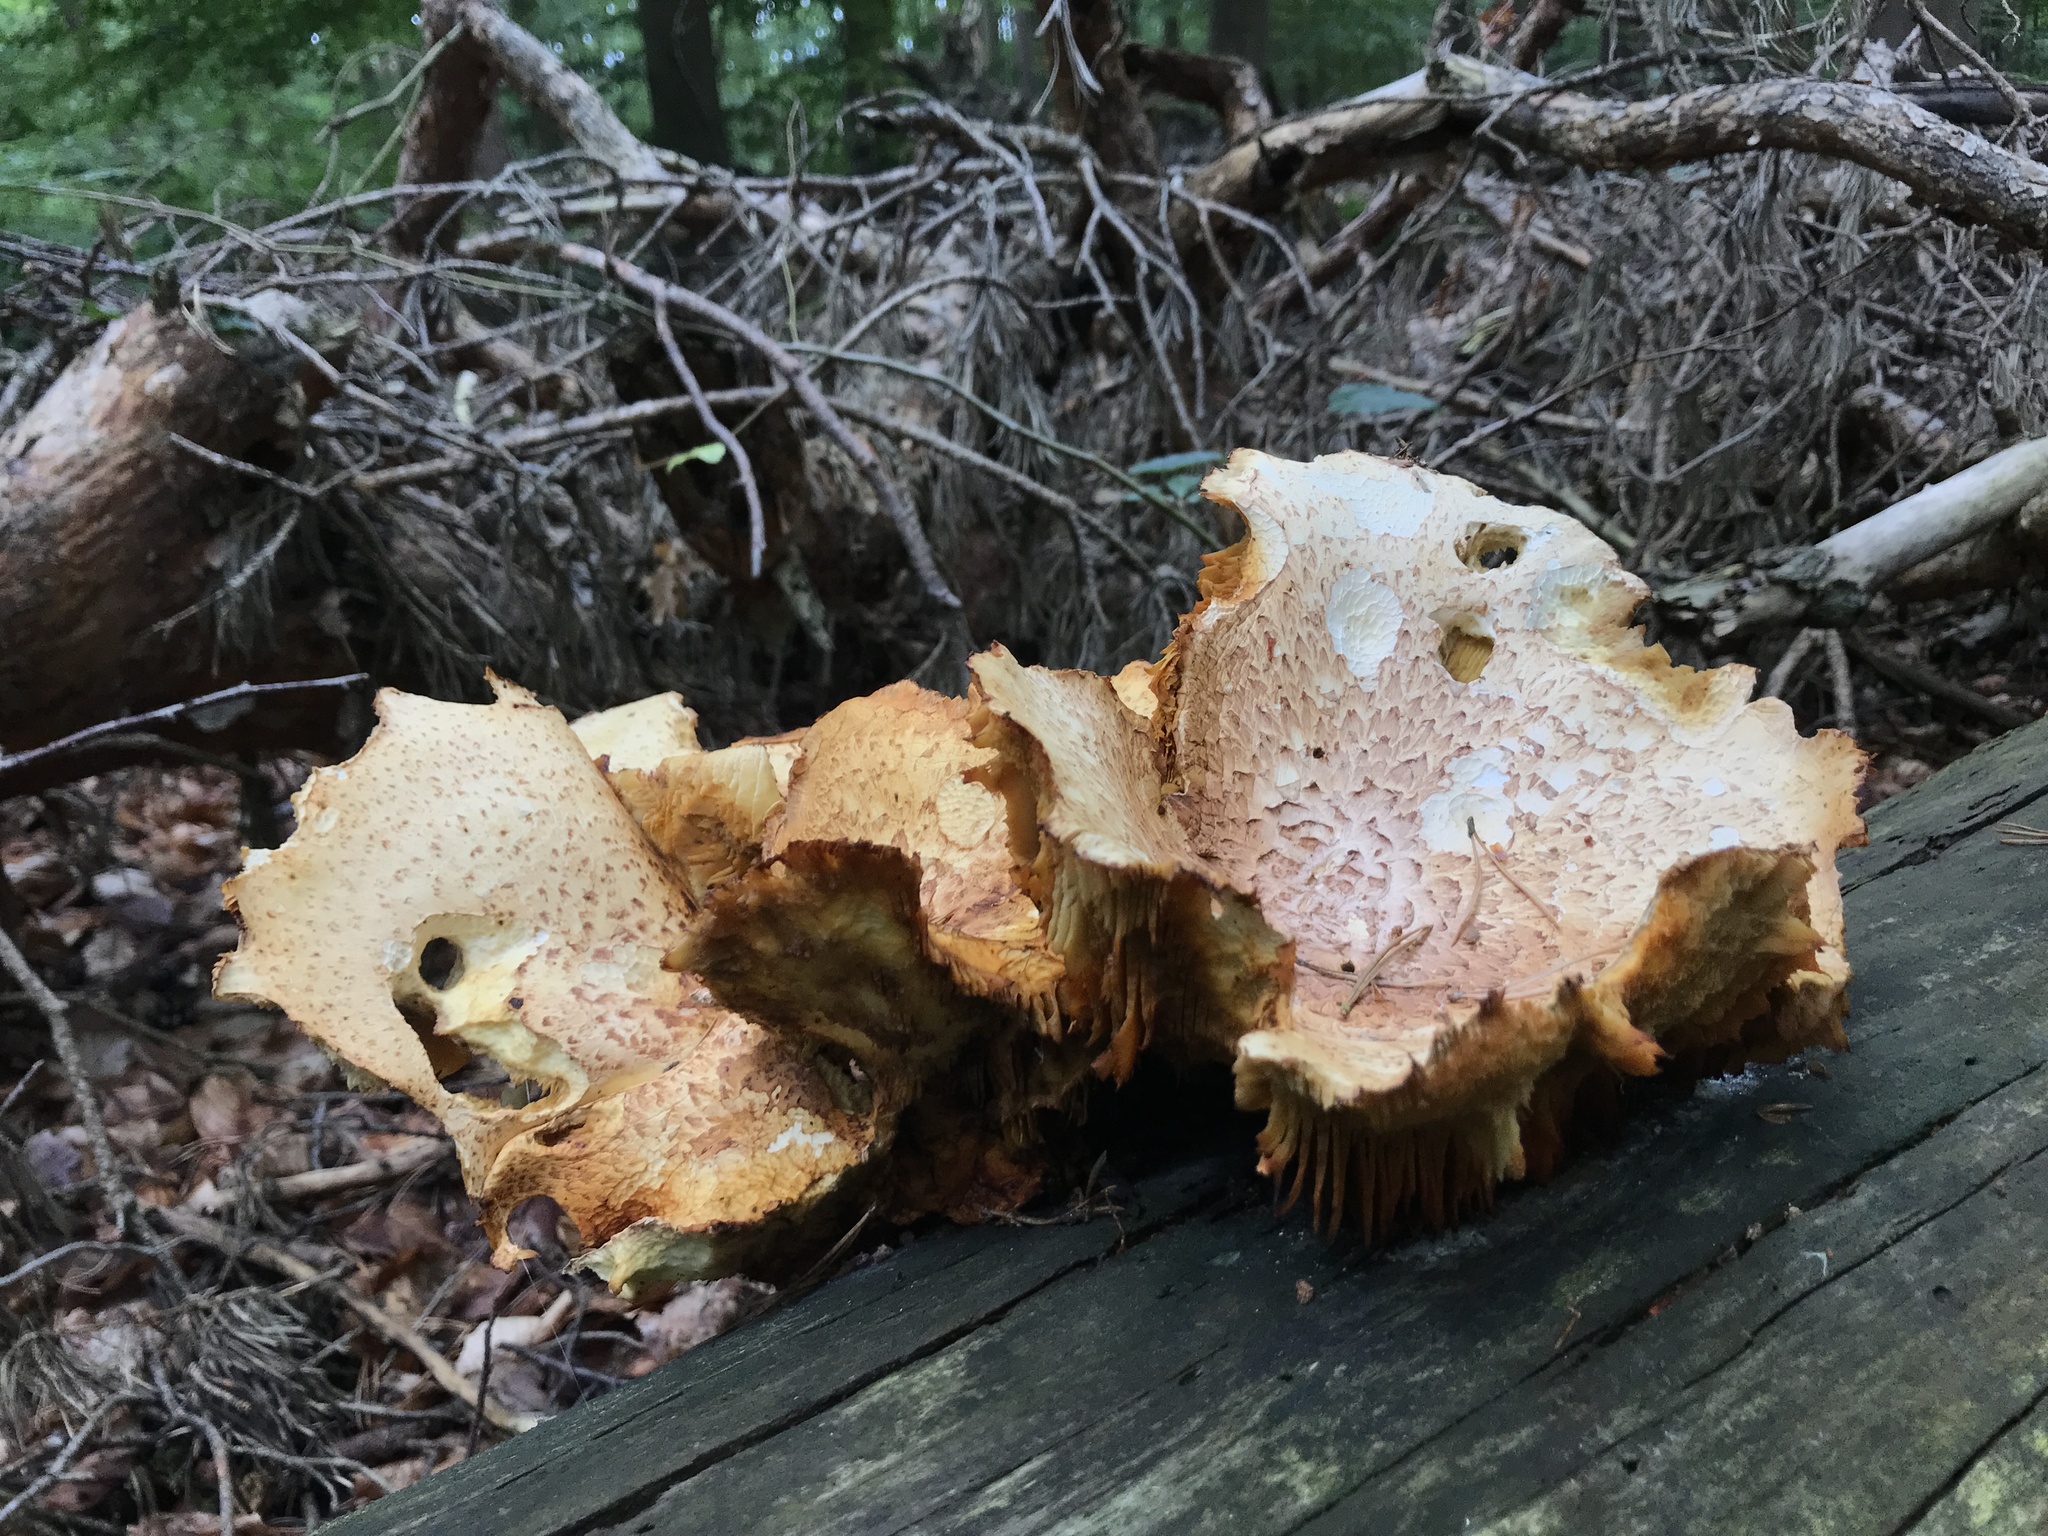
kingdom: Fungi
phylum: Basidiomycota
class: Agaricomycetes
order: Gloeophyllales
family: Gloeophyllaceae
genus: Neolentinus
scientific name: Neolentinus lepideus
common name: Scaly sawgill
